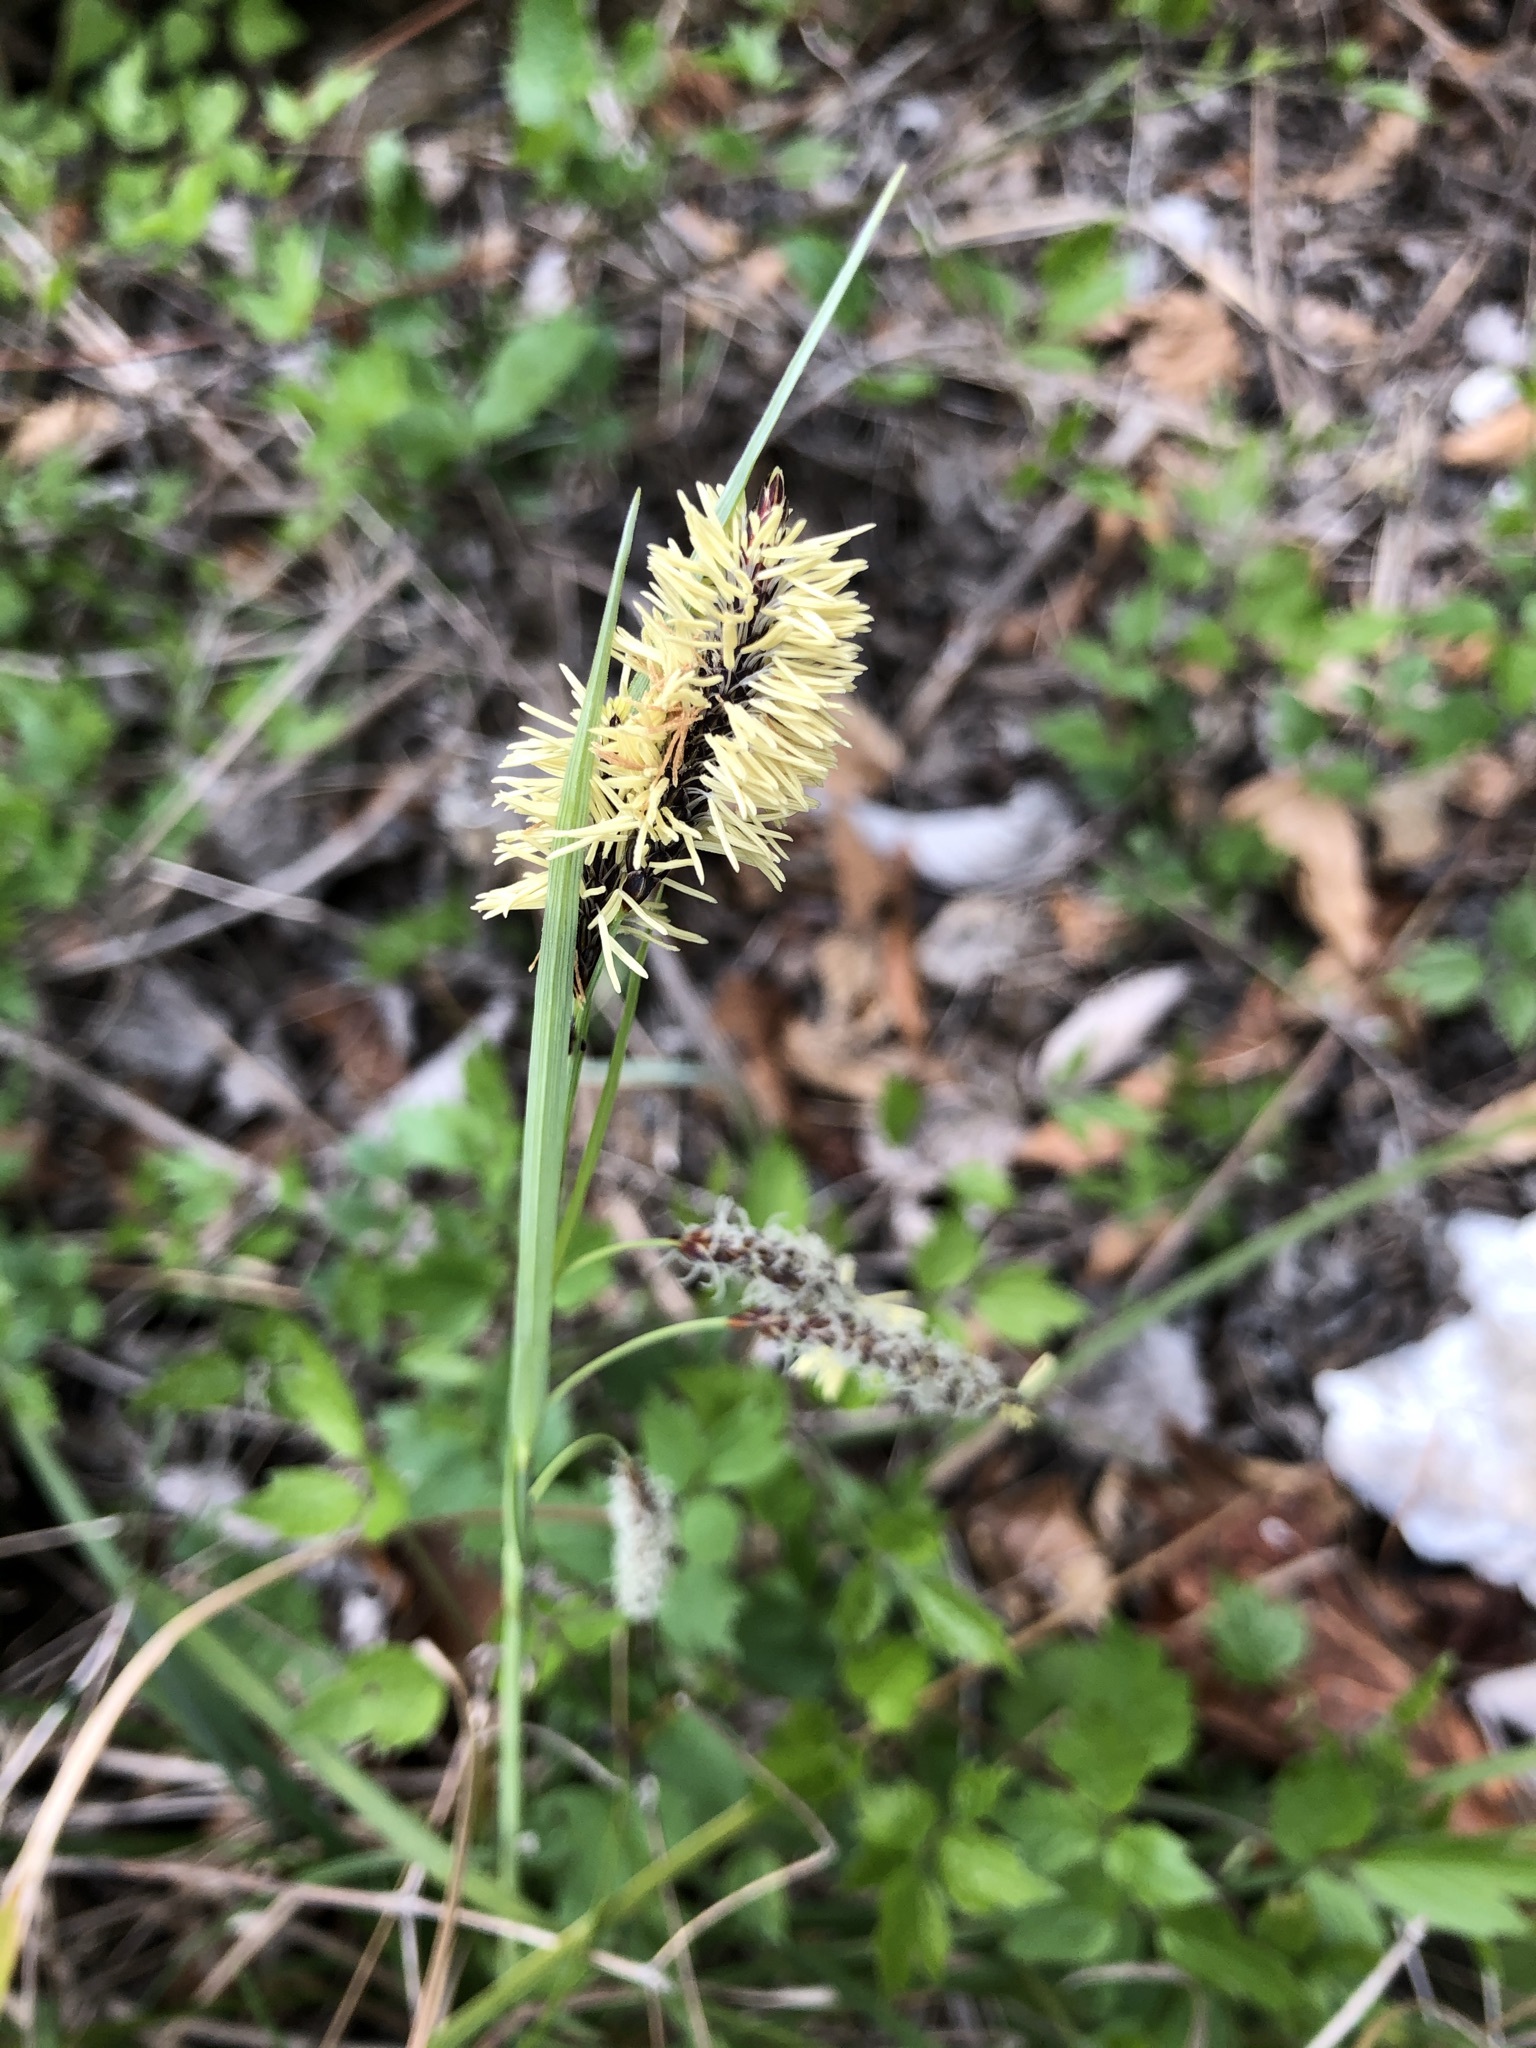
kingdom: Plantae
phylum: Tracheophyta
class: Liliopsida
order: Poales
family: Cyperaceae
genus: Carex
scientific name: Carex flacca
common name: Glaucous sedge
